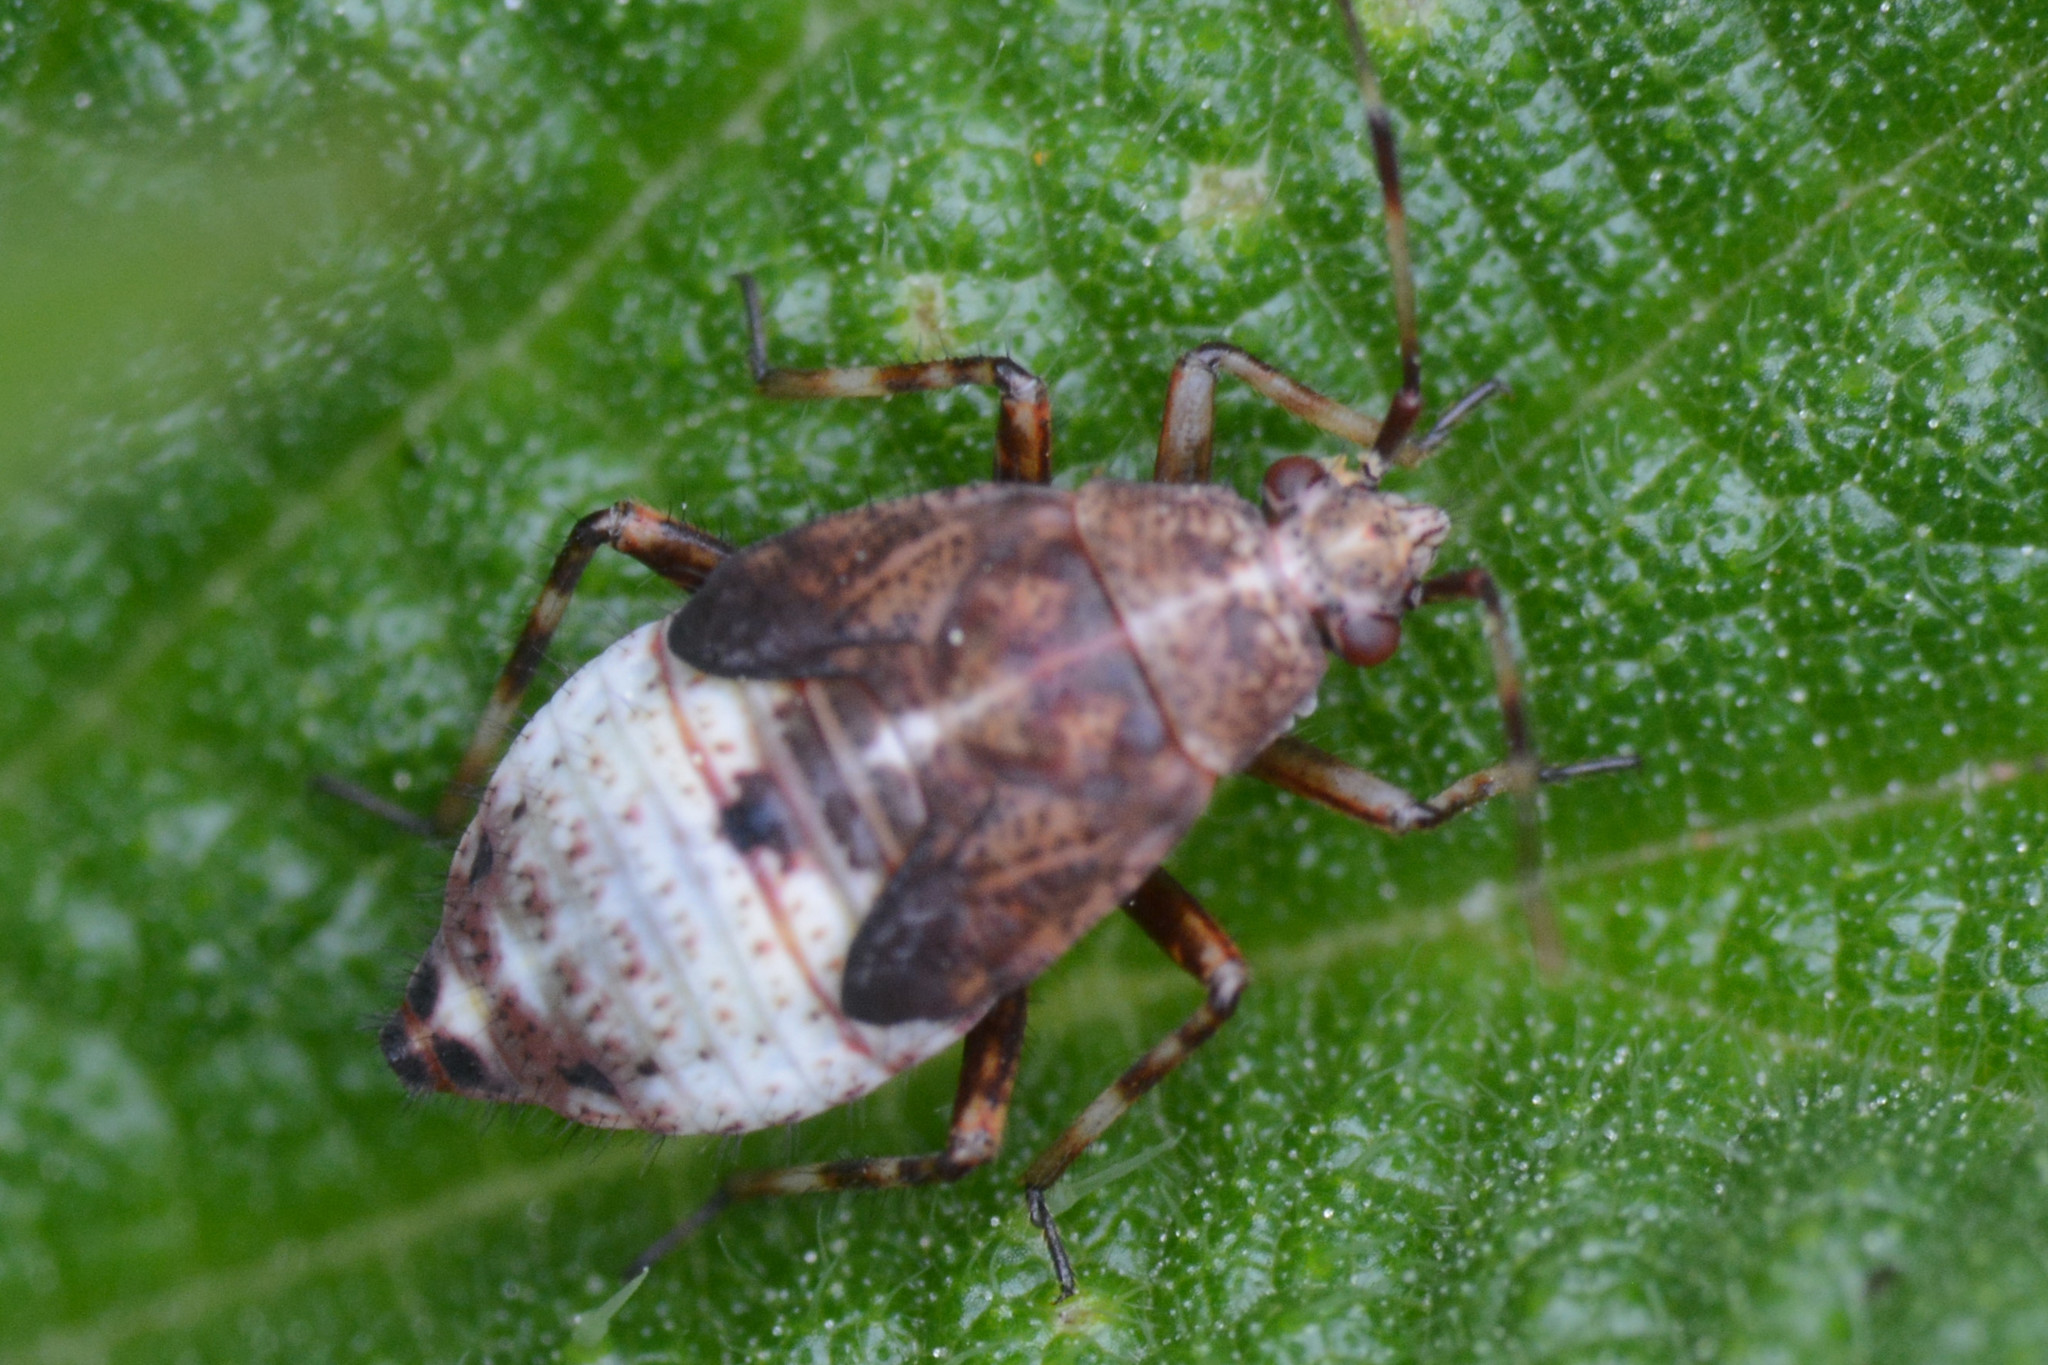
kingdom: Animalia
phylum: Arthropoda
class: Insecta
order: Hemiptera
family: Miridae
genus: Deraeocoris
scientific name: Deraeocoris flavilinea
